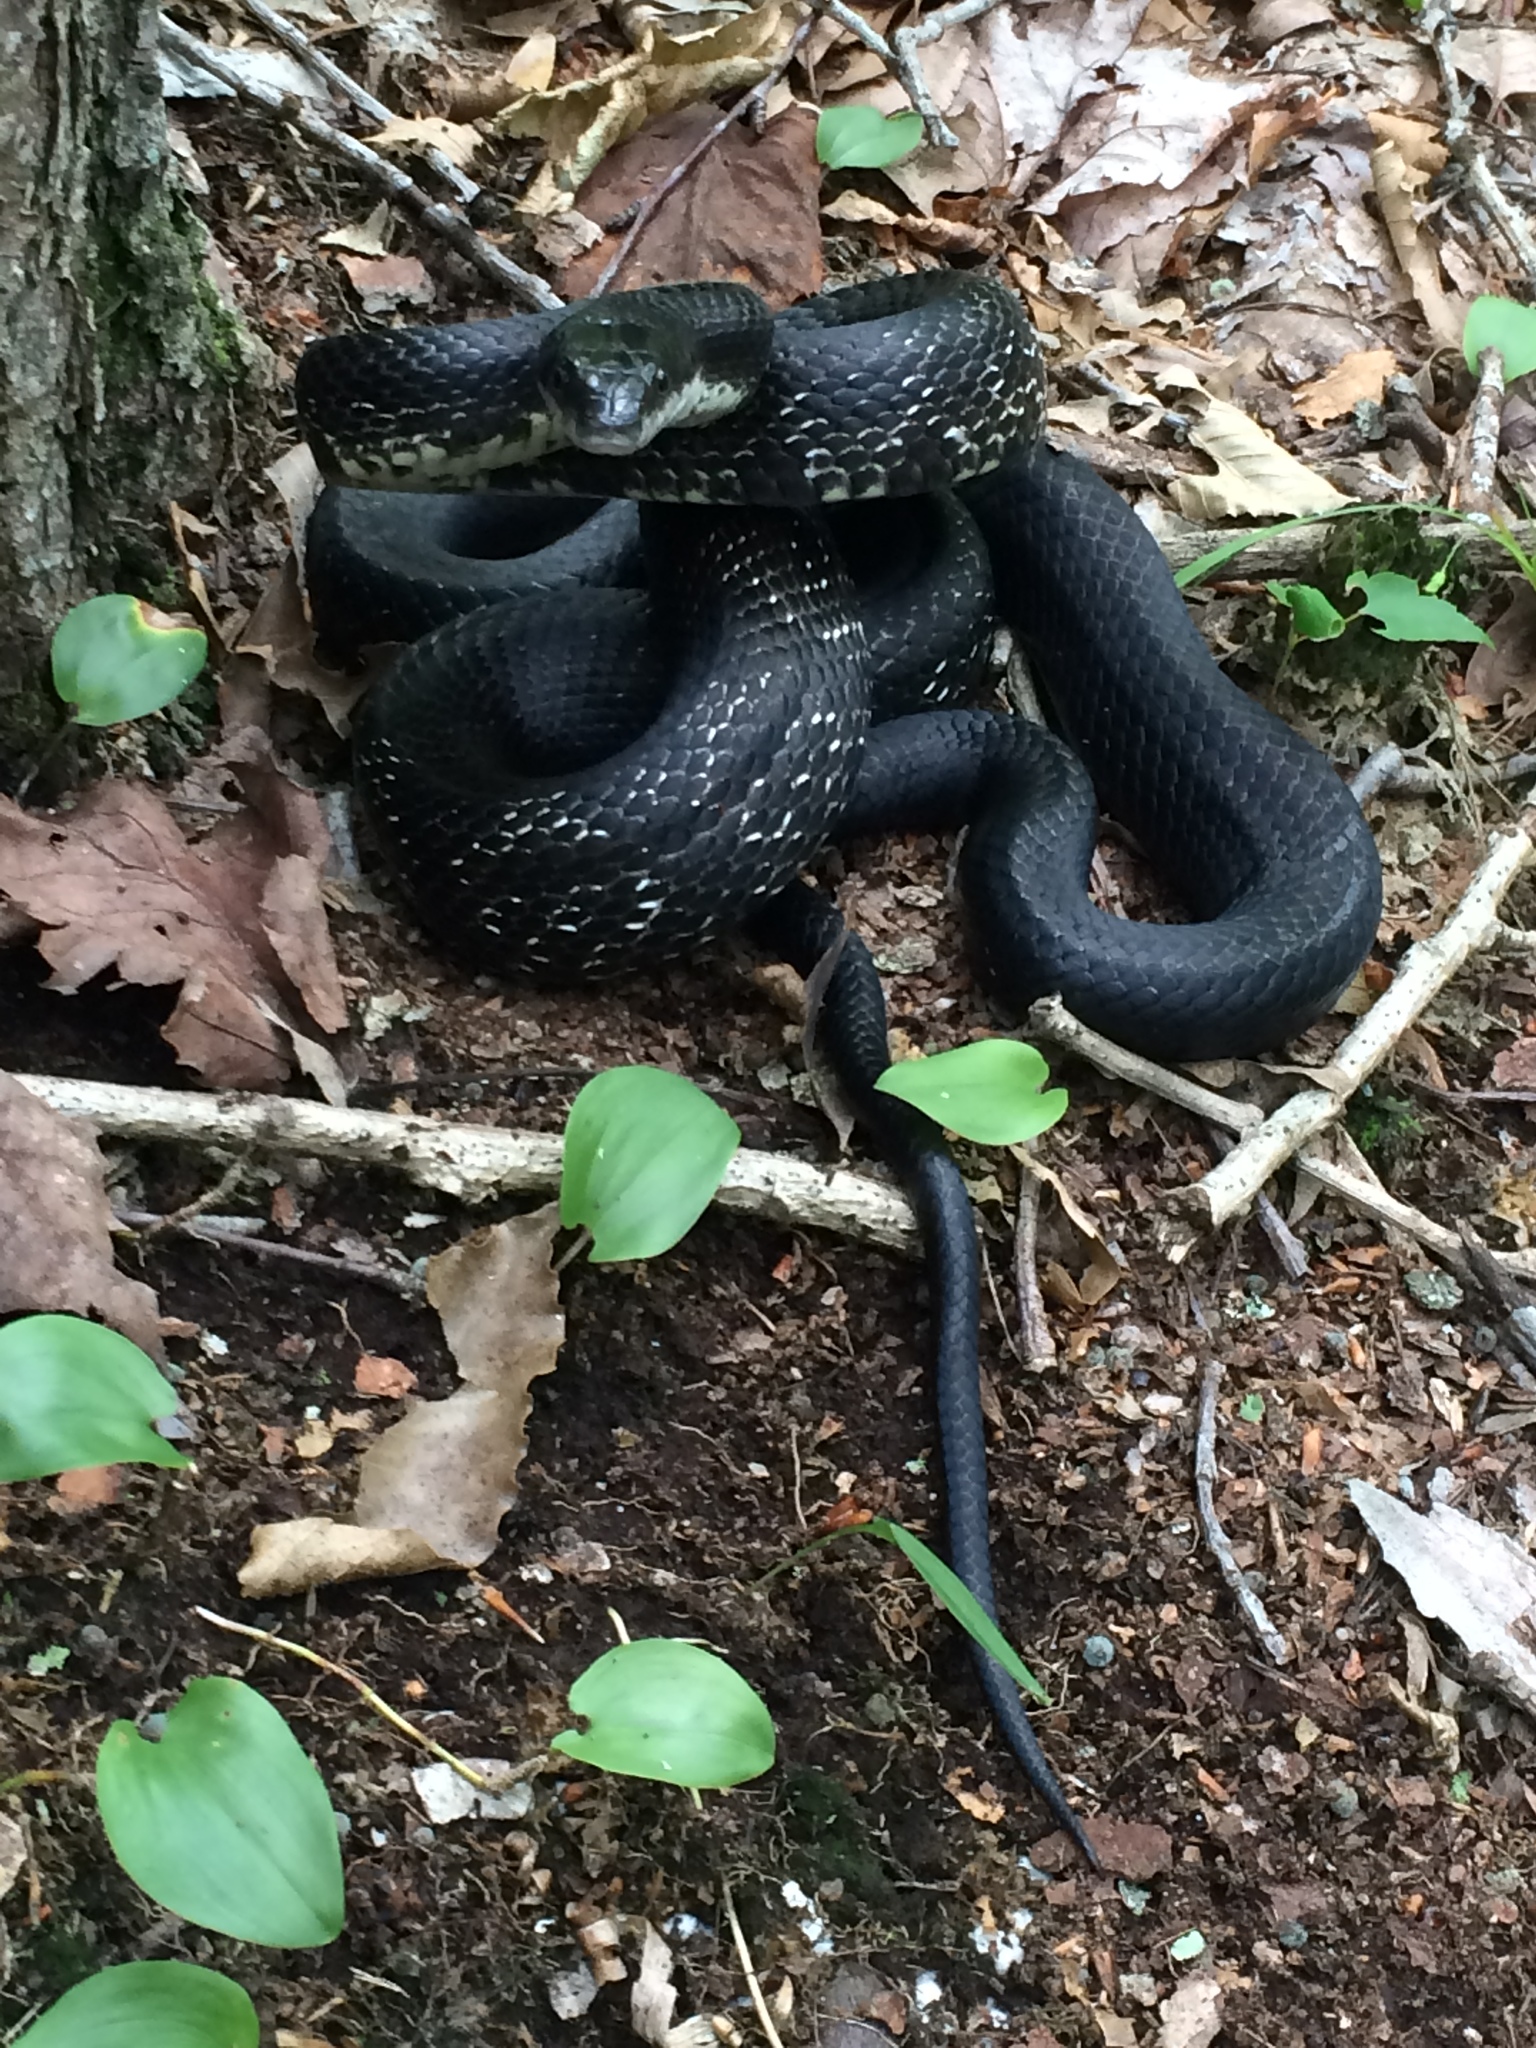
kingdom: Animalia
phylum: Chordata
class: Squamata
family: Colubridae
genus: Pantherophis
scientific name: Pantherophis alleghaniensis
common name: Eastern rat snake
